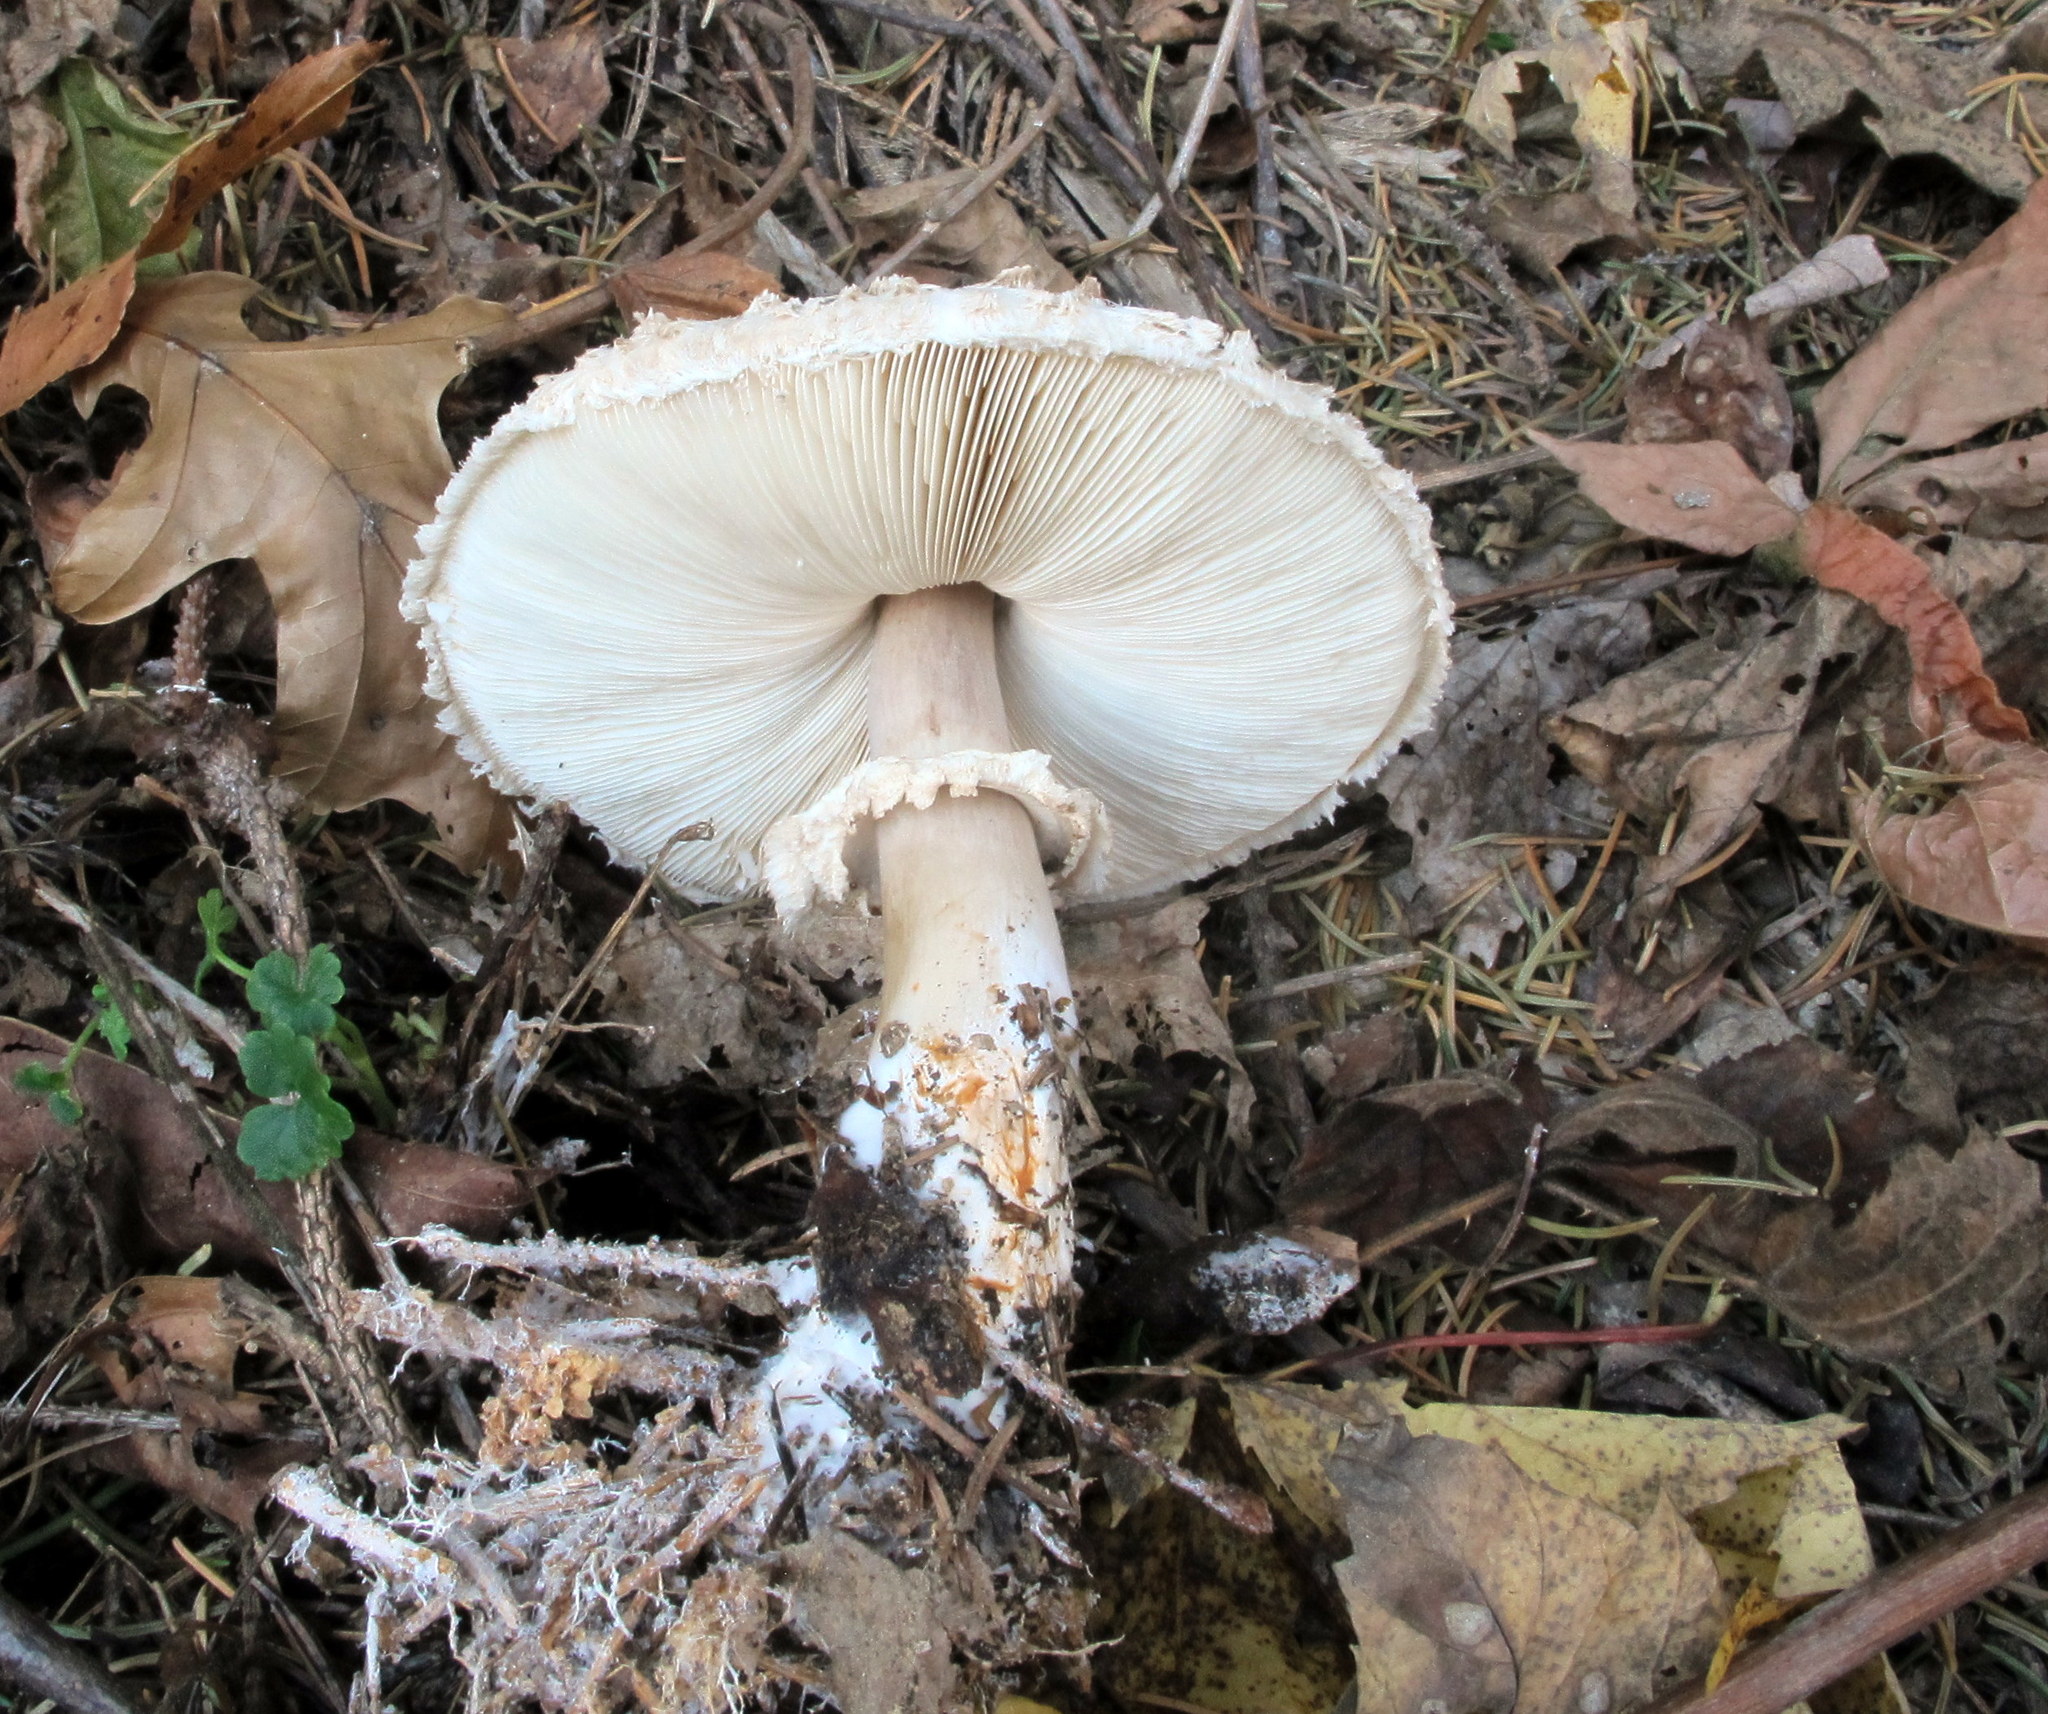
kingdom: Fungi
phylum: Basidiomycota
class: Agaricomycetes
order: Agaricales
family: Agaricaceae
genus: Chlorophyllum
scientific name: Chlorophyllum rhacodes
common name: Shaggy parasol
